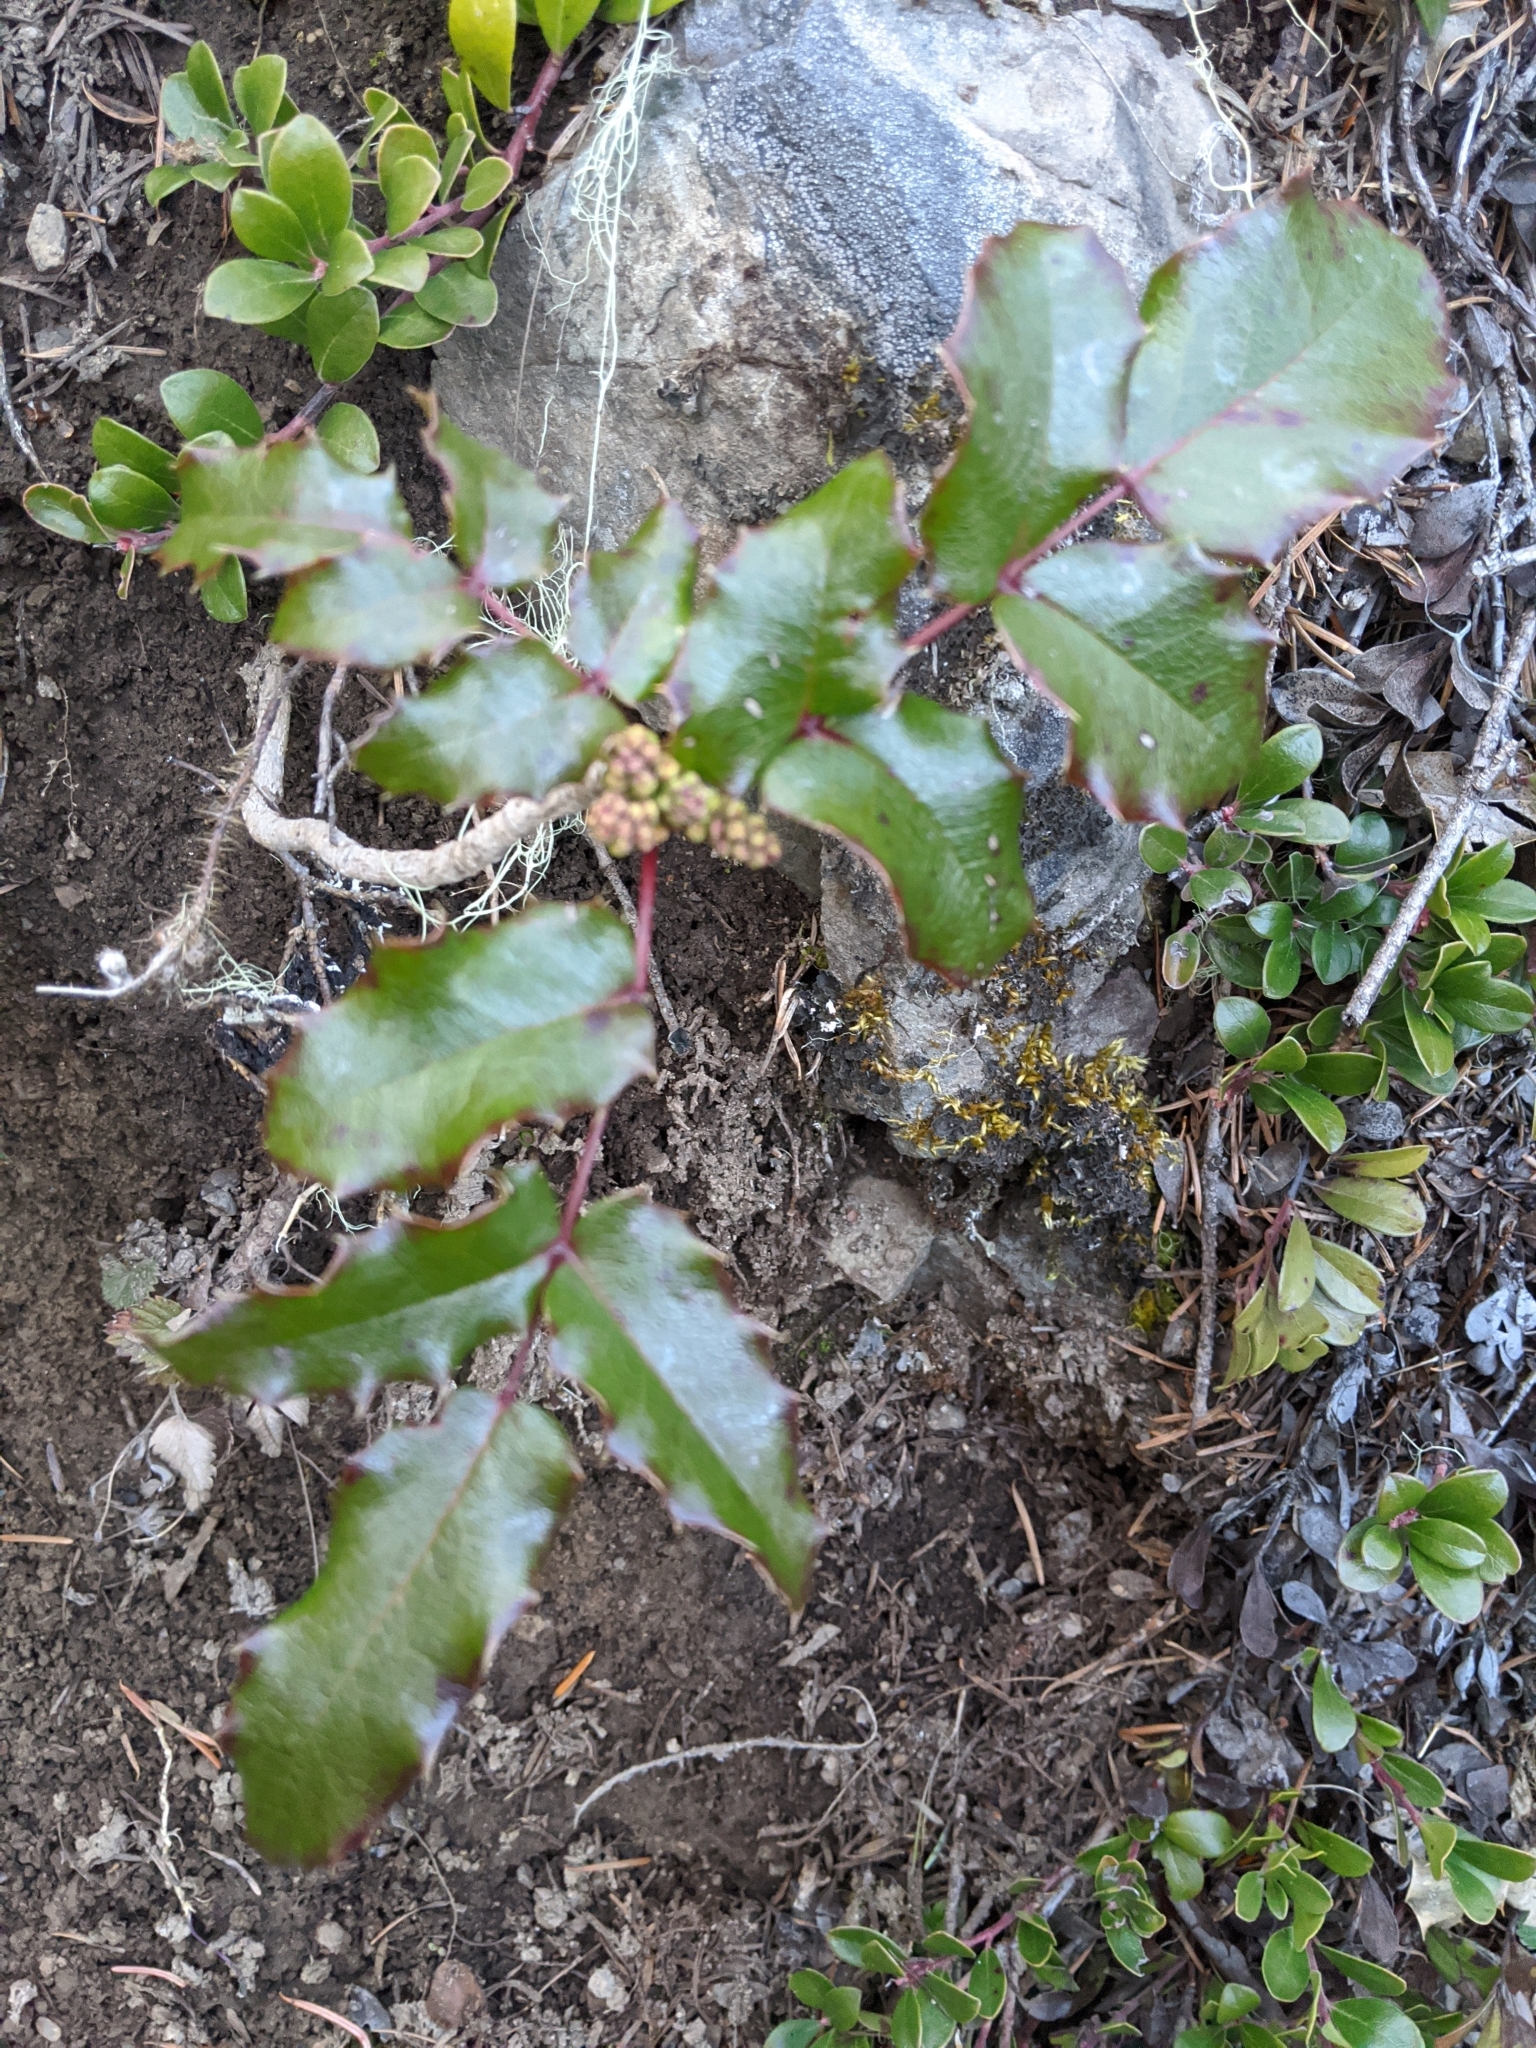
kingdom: Plantae
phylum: Tracheophyta
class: Magnoliopsida
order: Ranunculales
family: Berberidaceae
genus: Mahonia
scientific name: Mahonia aquifolium
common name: Oregon-grape
